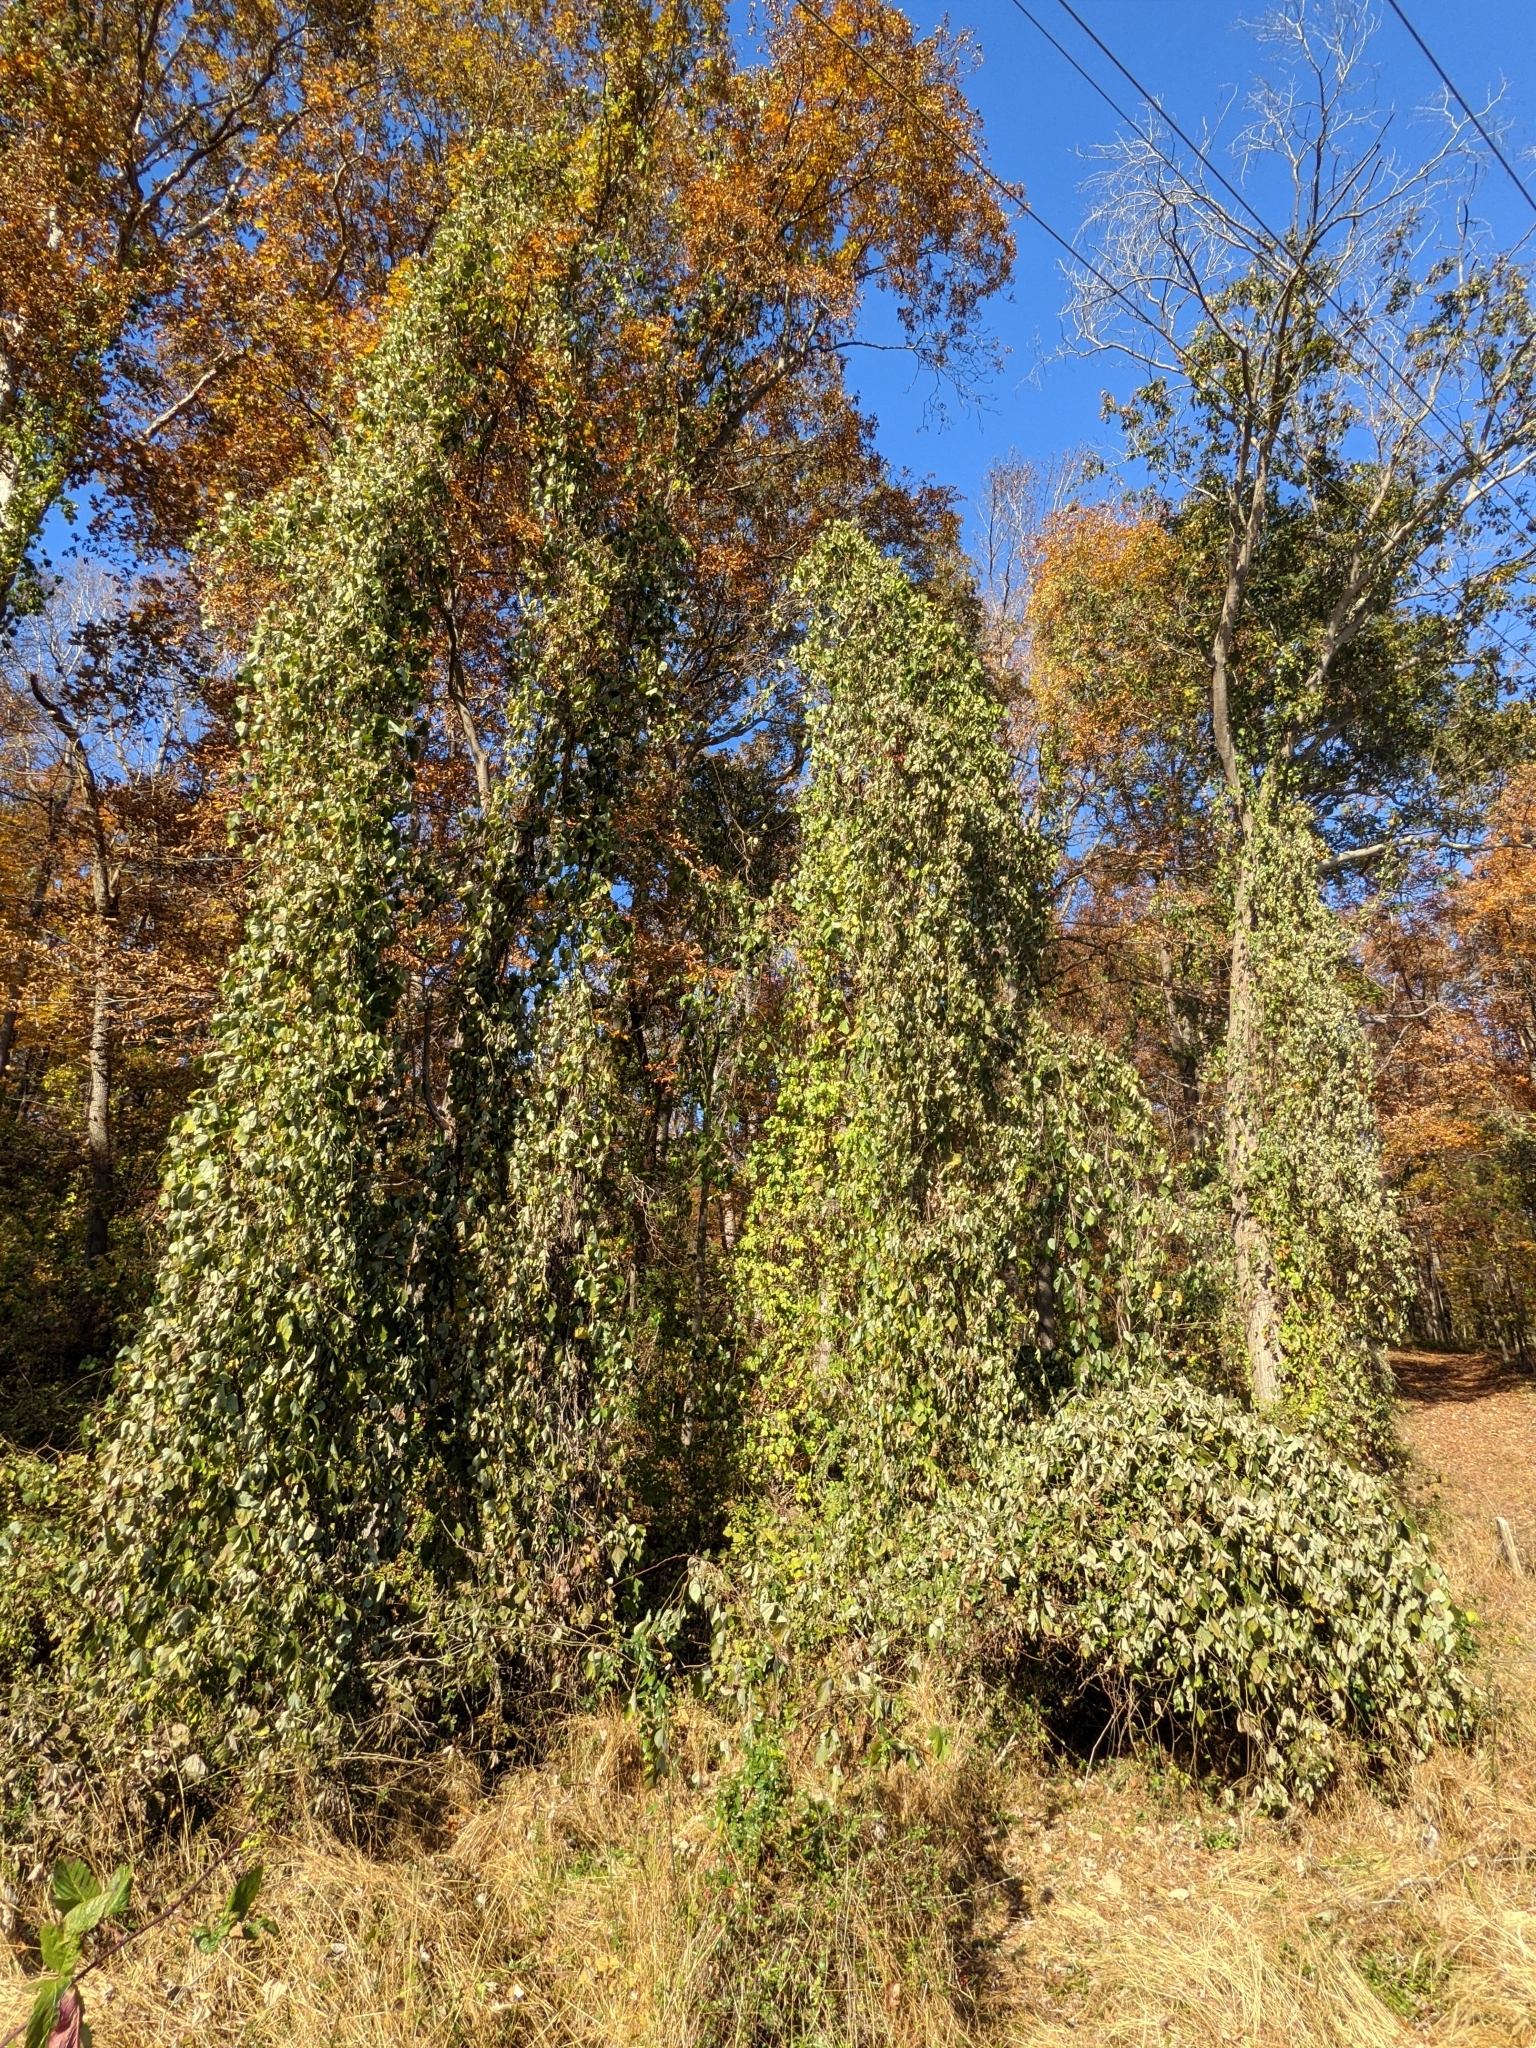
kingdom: Plantae
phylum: Tracheophyta
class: Magnoliopsida
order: Fabales
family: Fabaceae
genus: Pueraria
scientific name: Pueraria montana
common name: Kudzu
